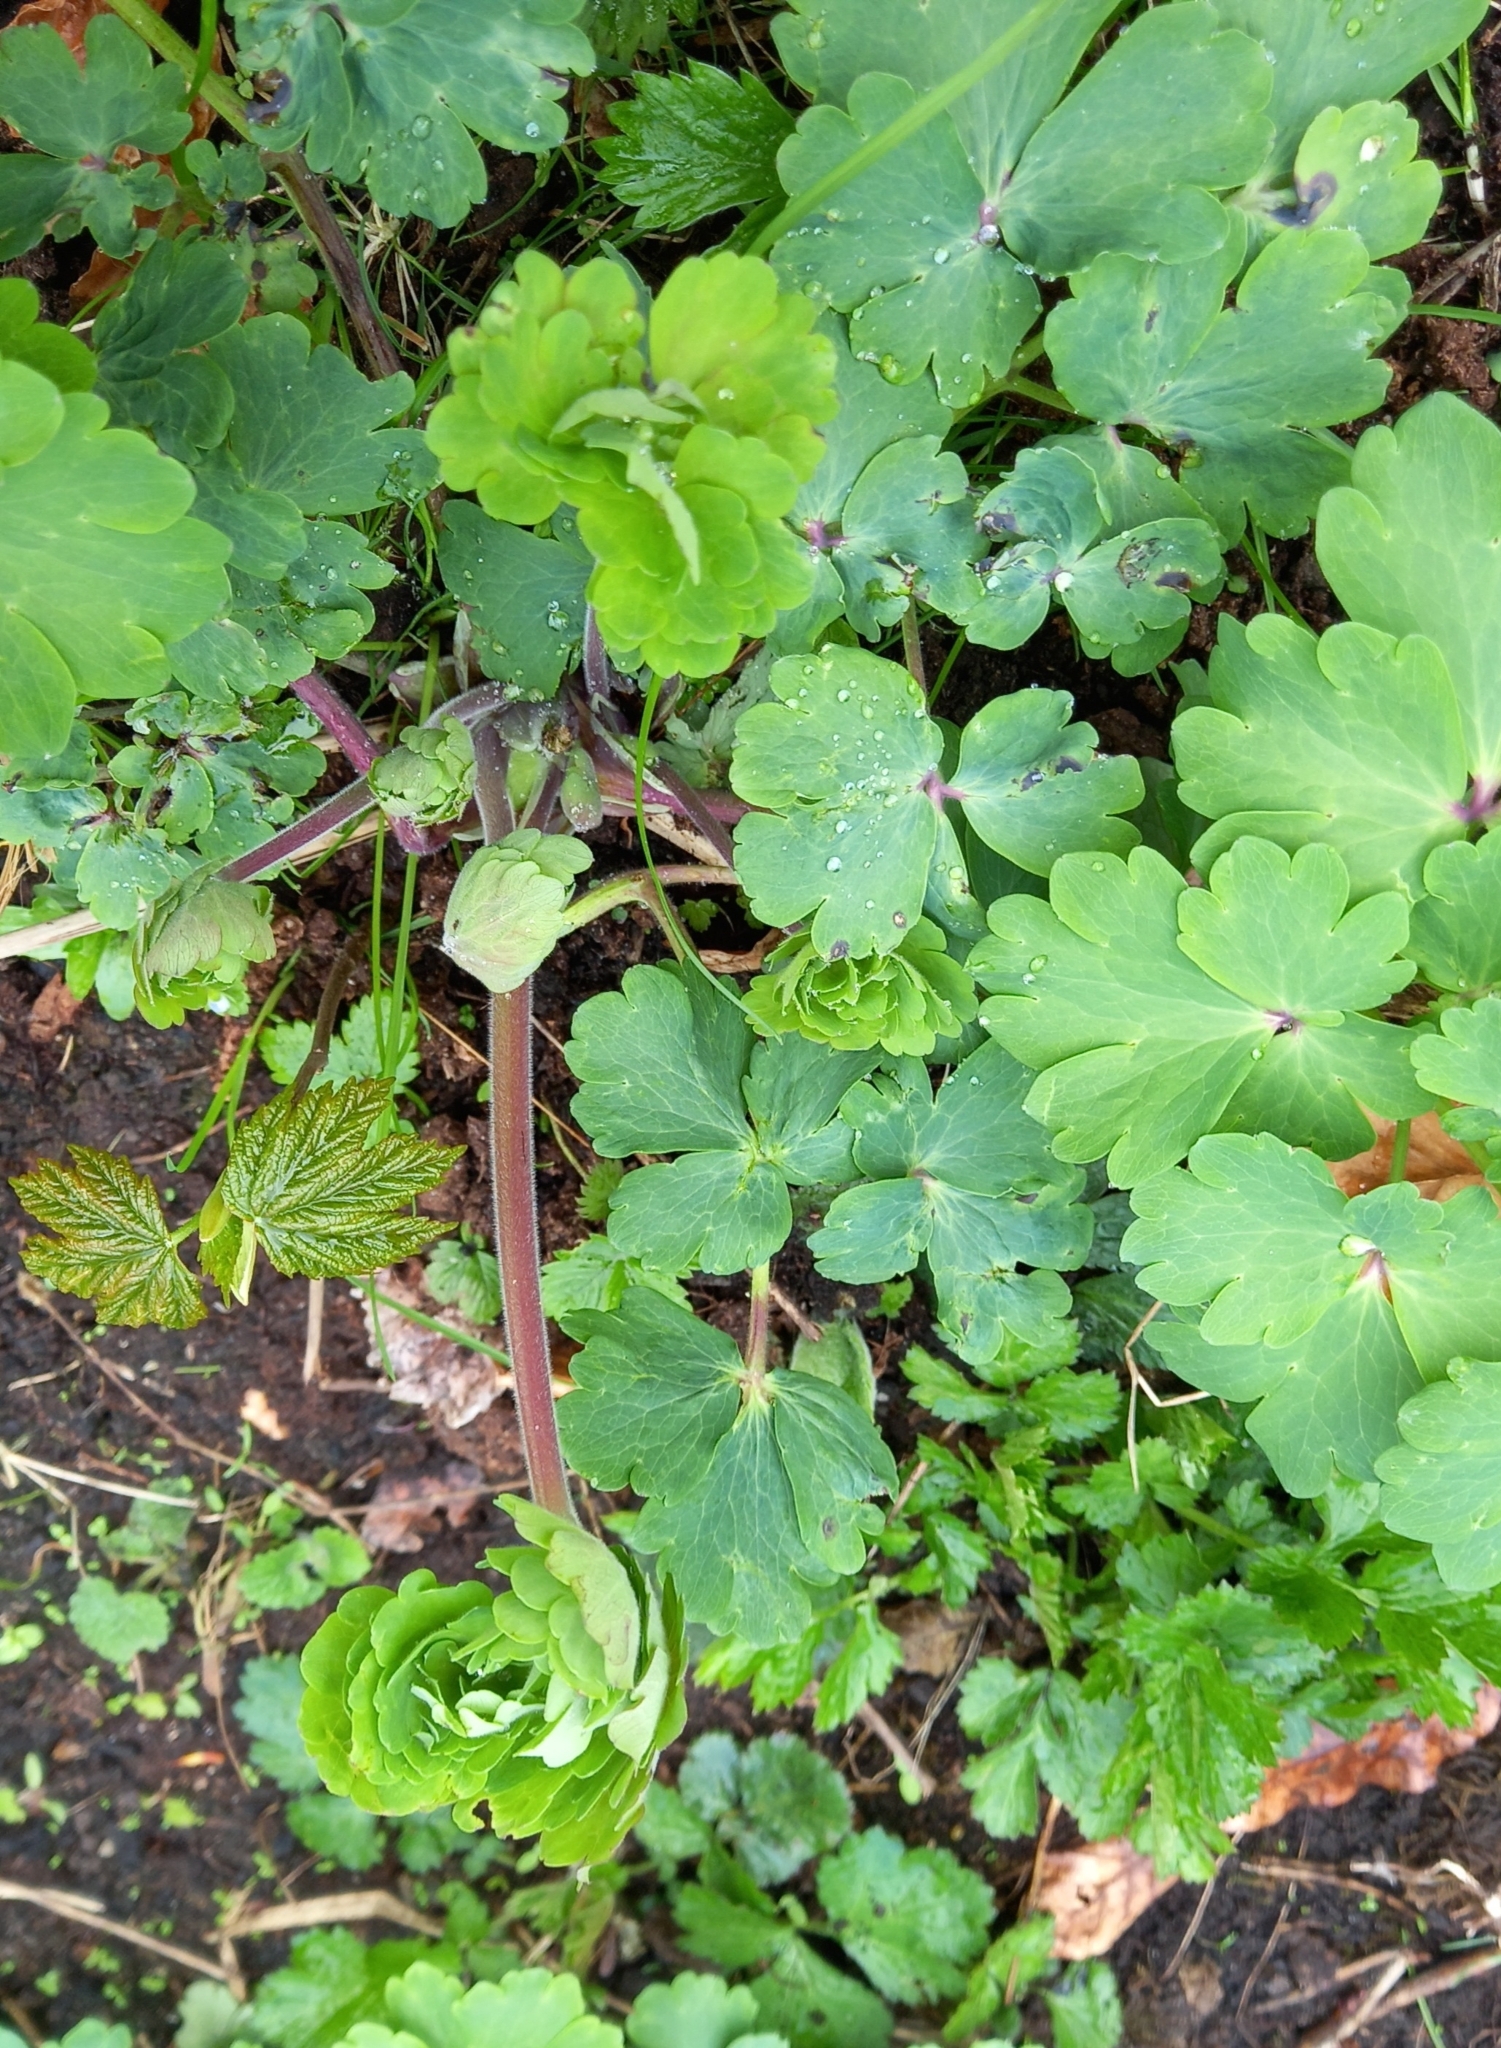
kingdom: Plantae
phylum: Tracheophyta
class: Magnoliopsida
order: Ranunculales
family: Ranunculaceae
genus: Aquilegia
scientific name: Aquilegia vulgaris
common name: Columbine
